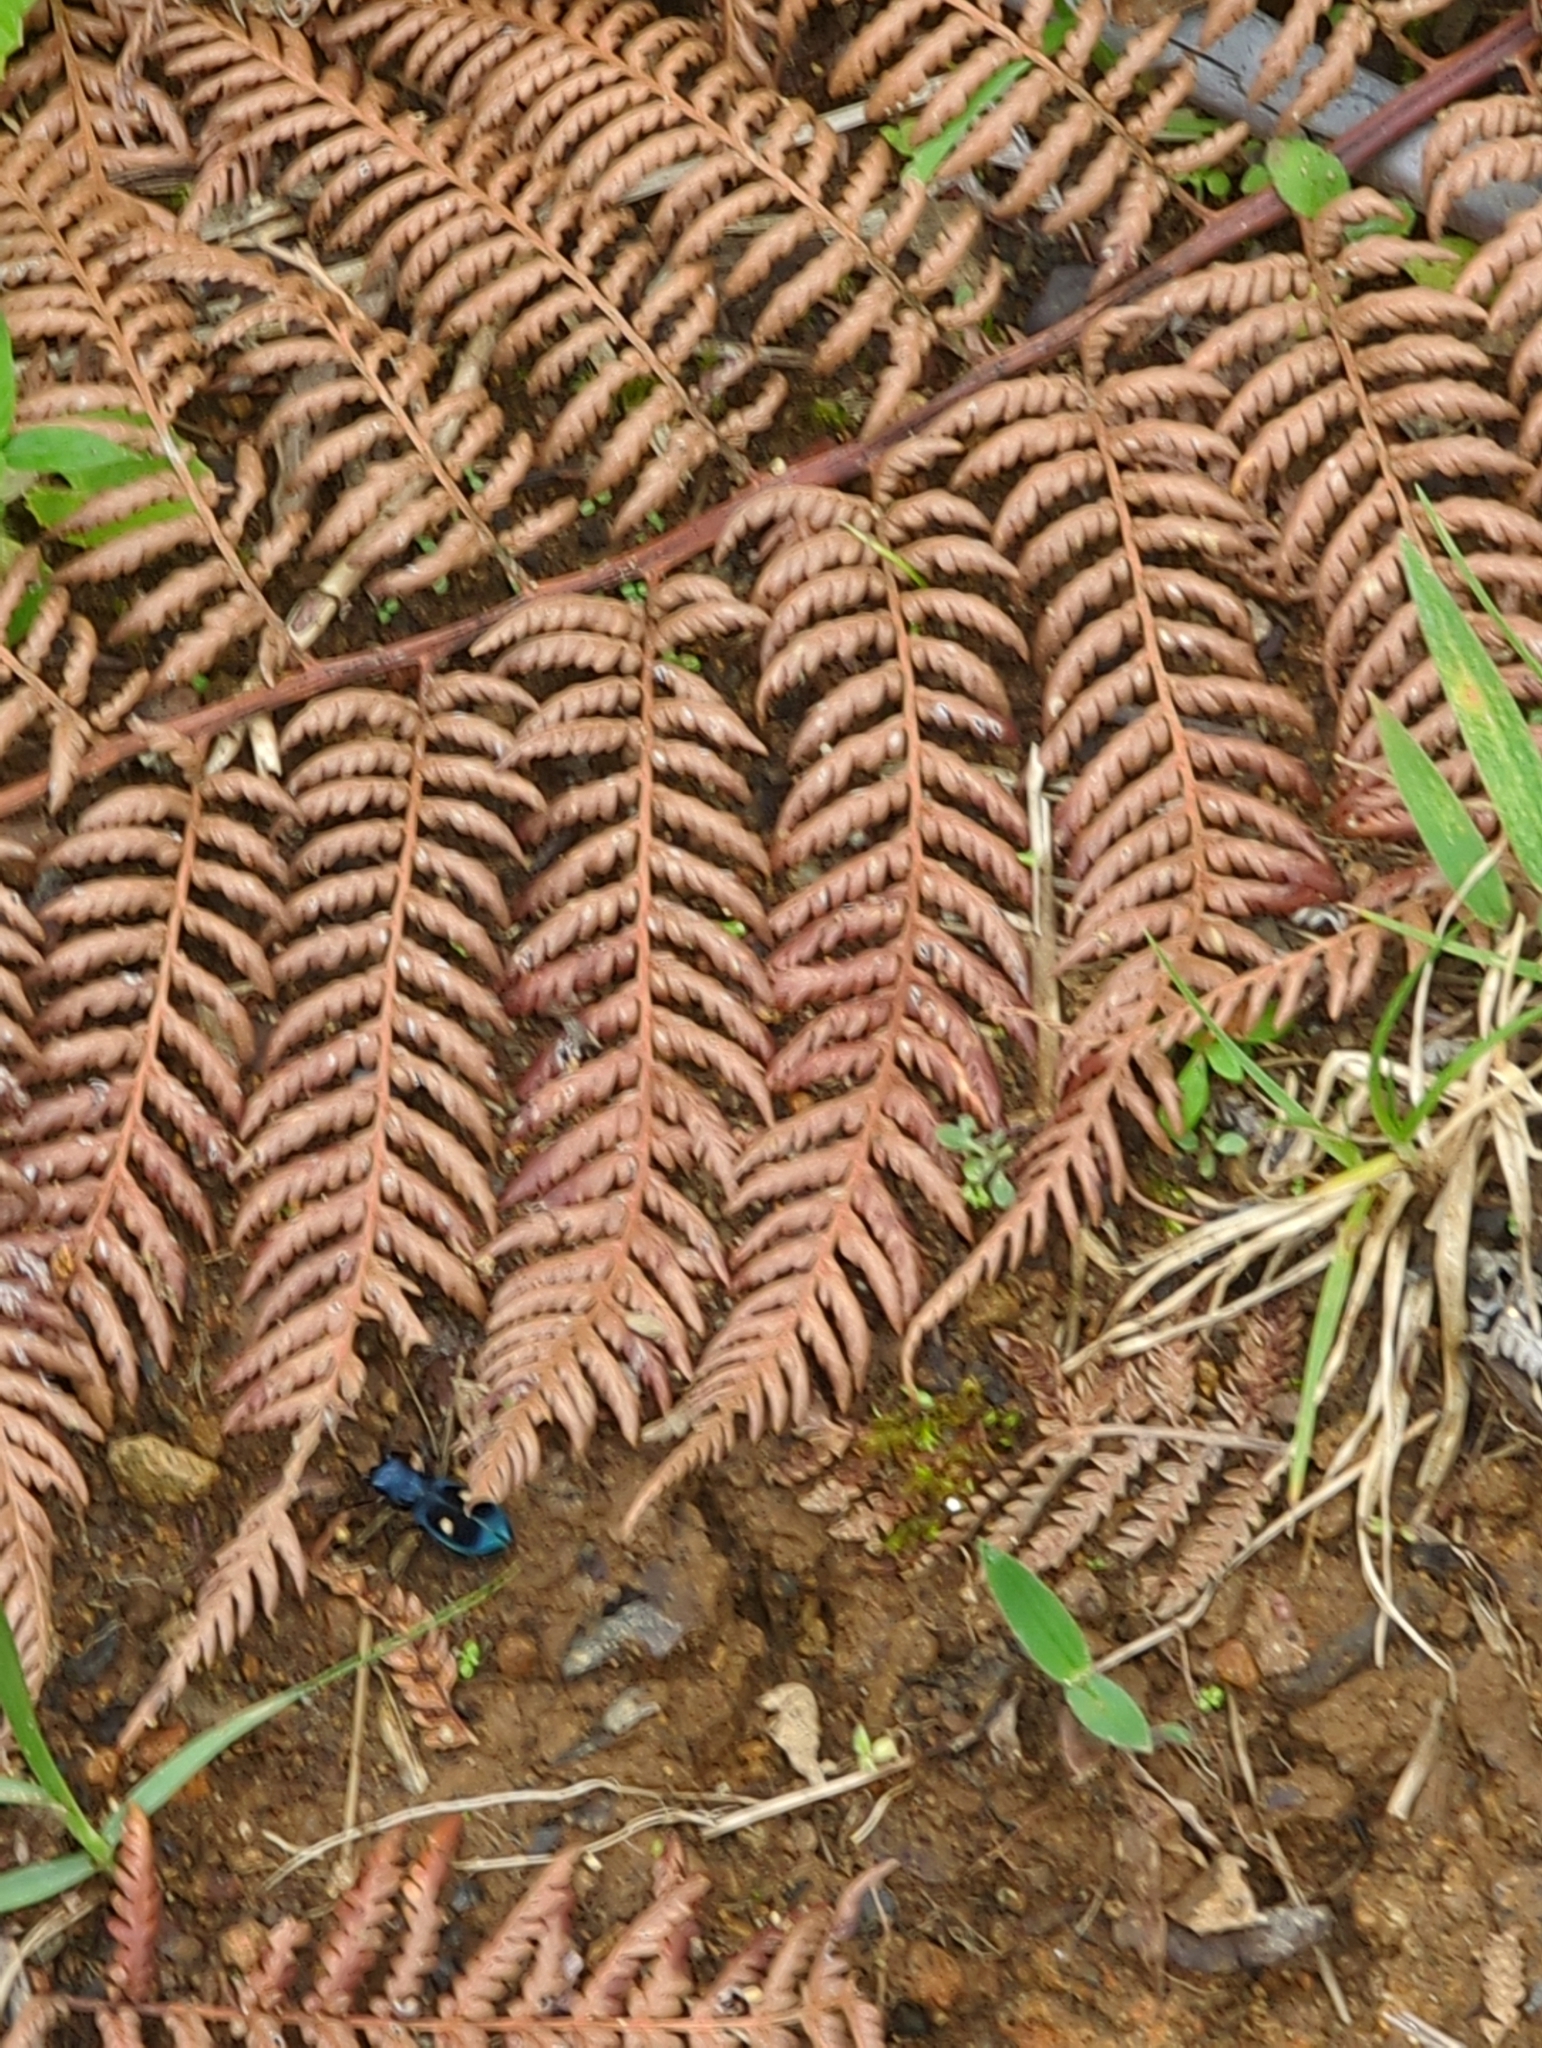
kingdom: Animalia
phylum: Arthropoda
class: Insecta
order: Coleoptera
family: Carabidae
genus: Pseudoxycheila
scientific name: Pseudoxycheila tarsalis
